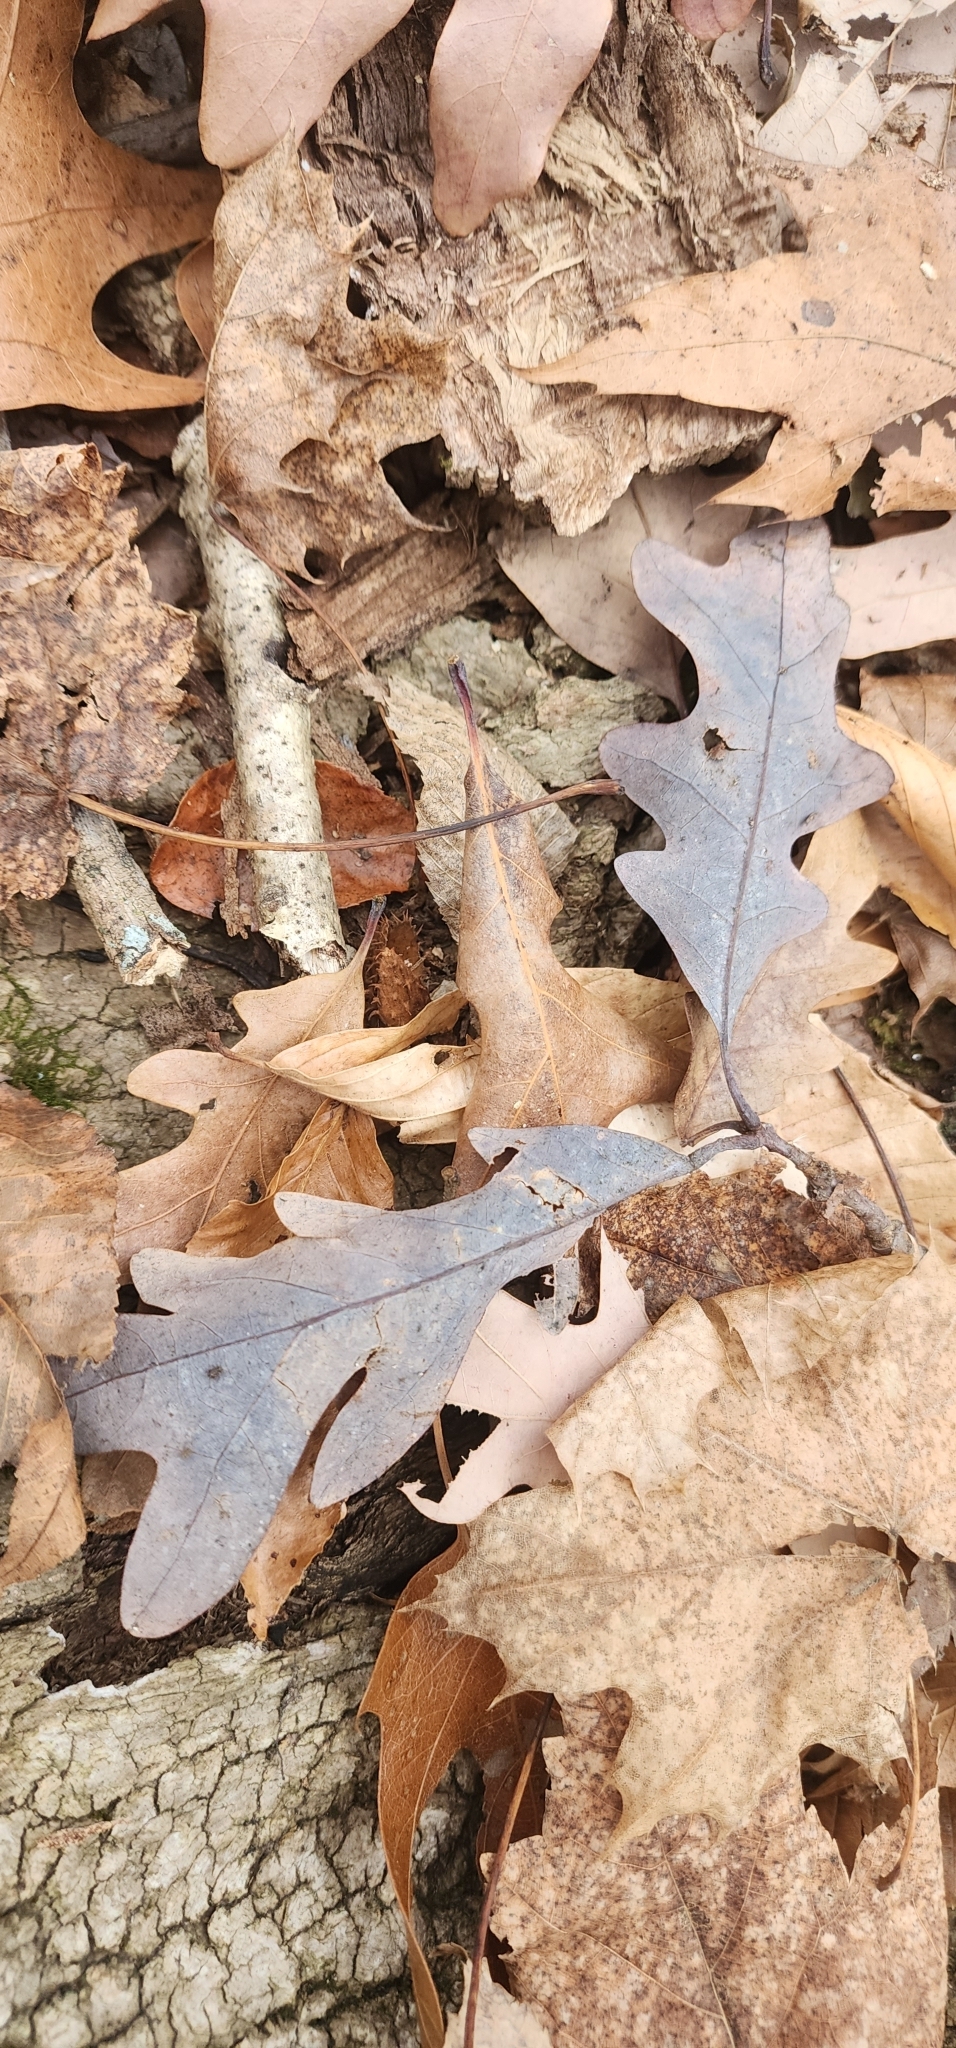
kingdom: Plantae
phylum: Tracheophyta
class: Magnoliopsida
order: Fagales
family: Fagaceae
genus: Quercus
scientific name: Quercus alba
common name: White oak
